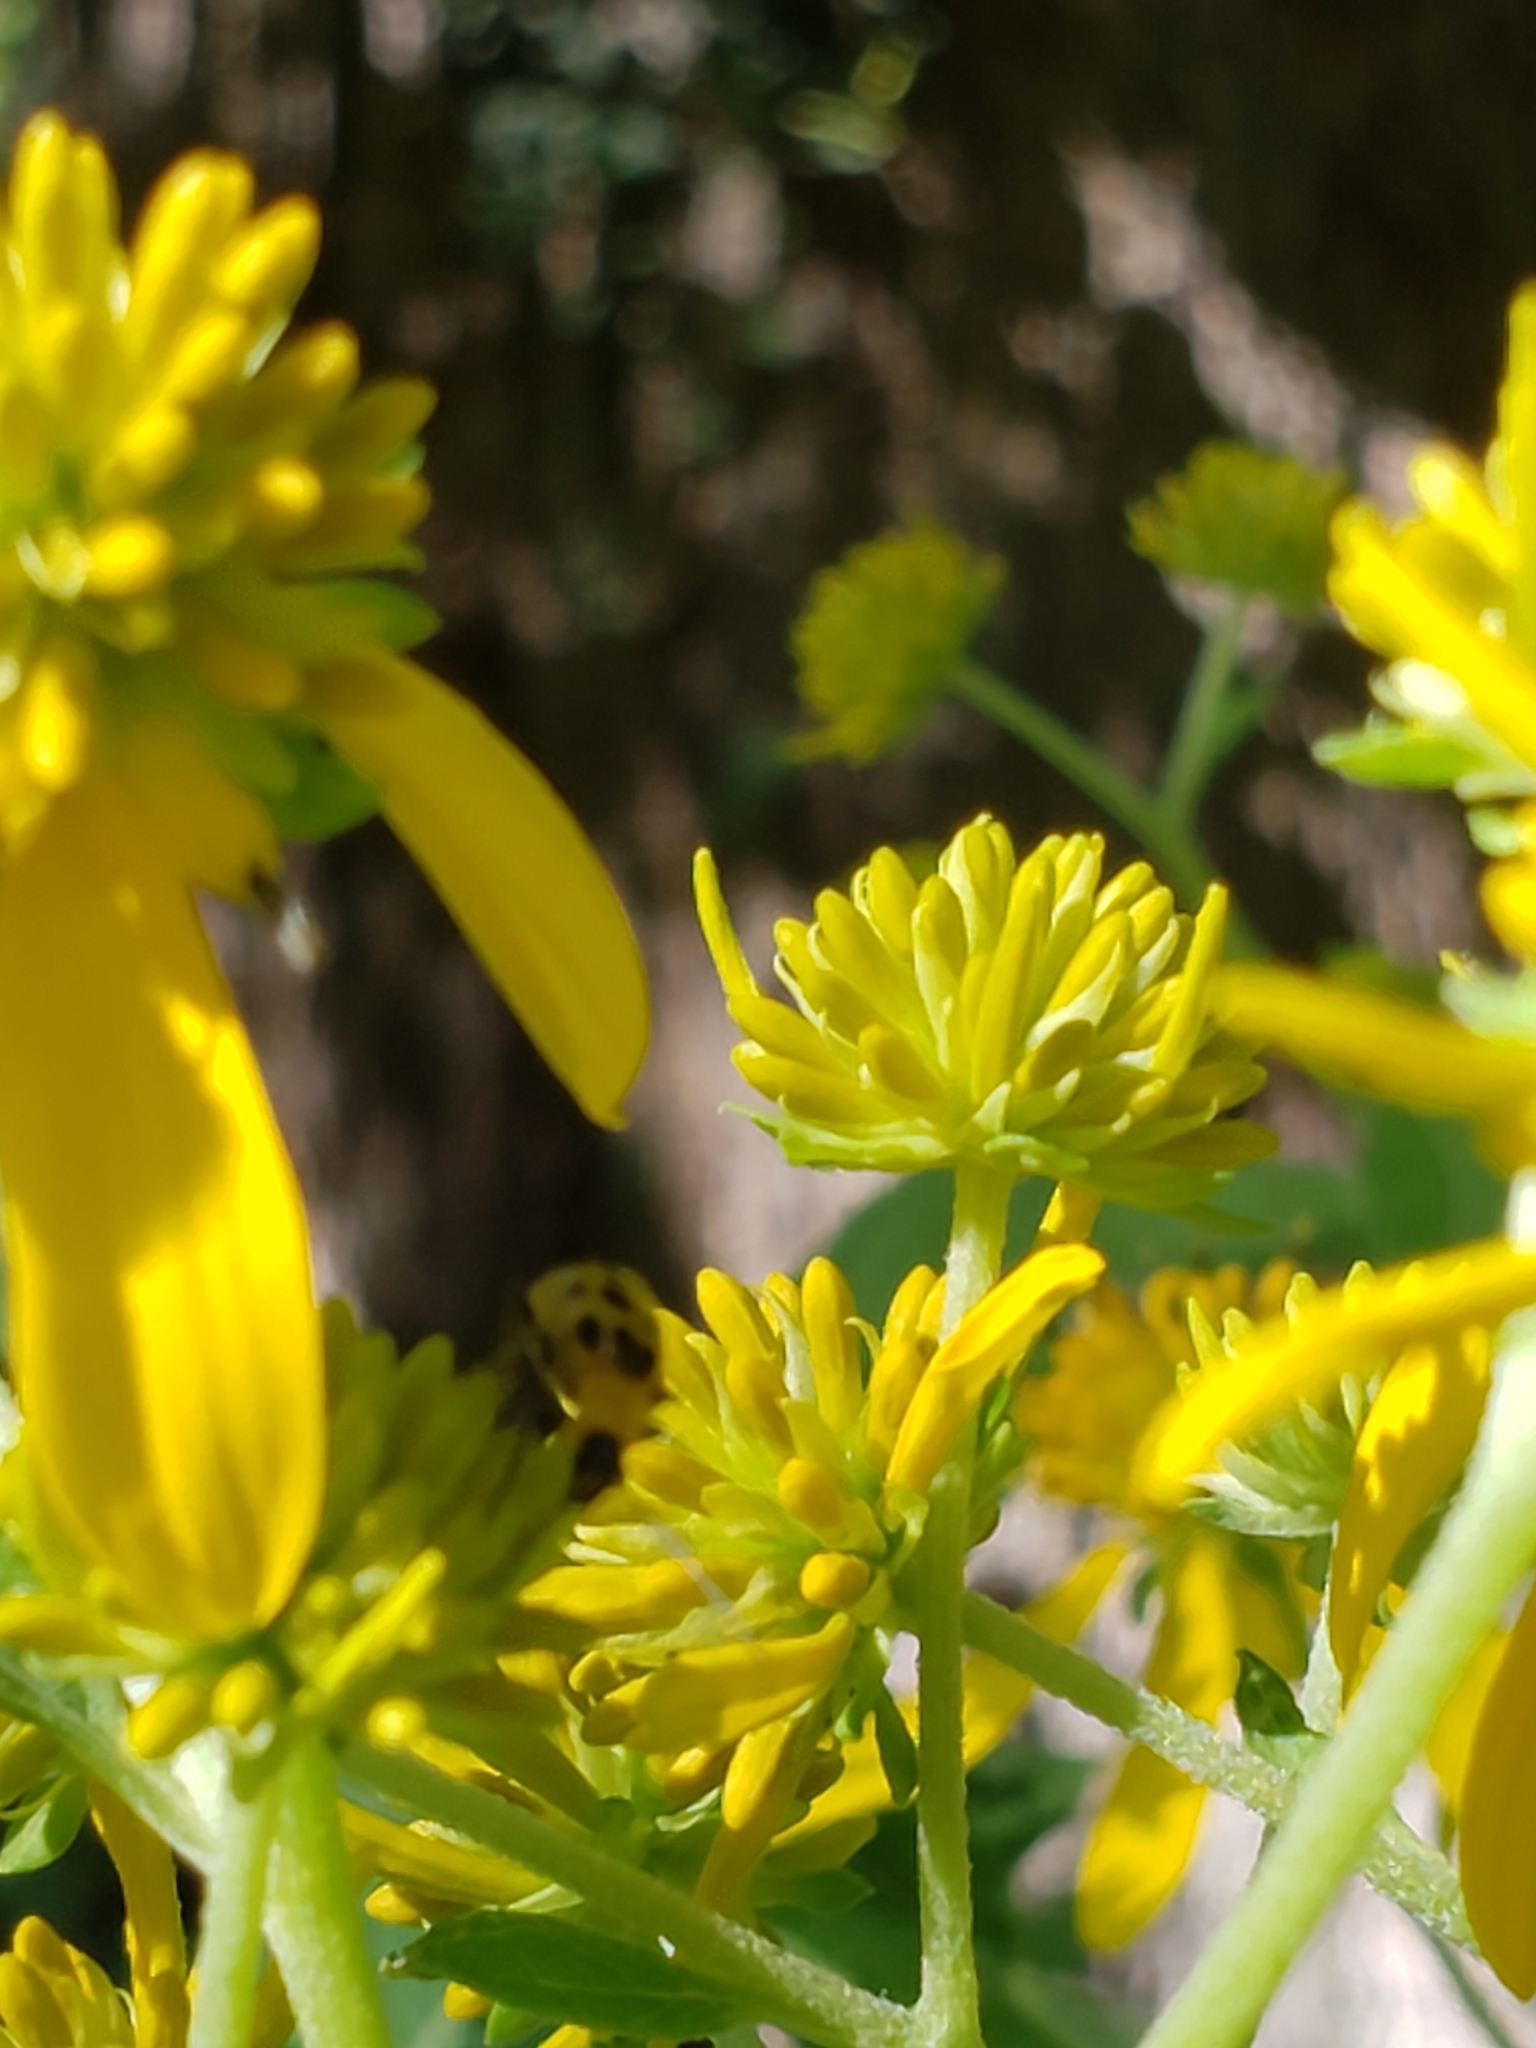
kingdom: Animalia
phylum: Arthropoda
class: Insecta
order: Coleoptera
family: Chrysomelidae
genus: Diabrotica
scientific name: Diabrotica undecimpunctata
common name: Spotted cucumber beetle
